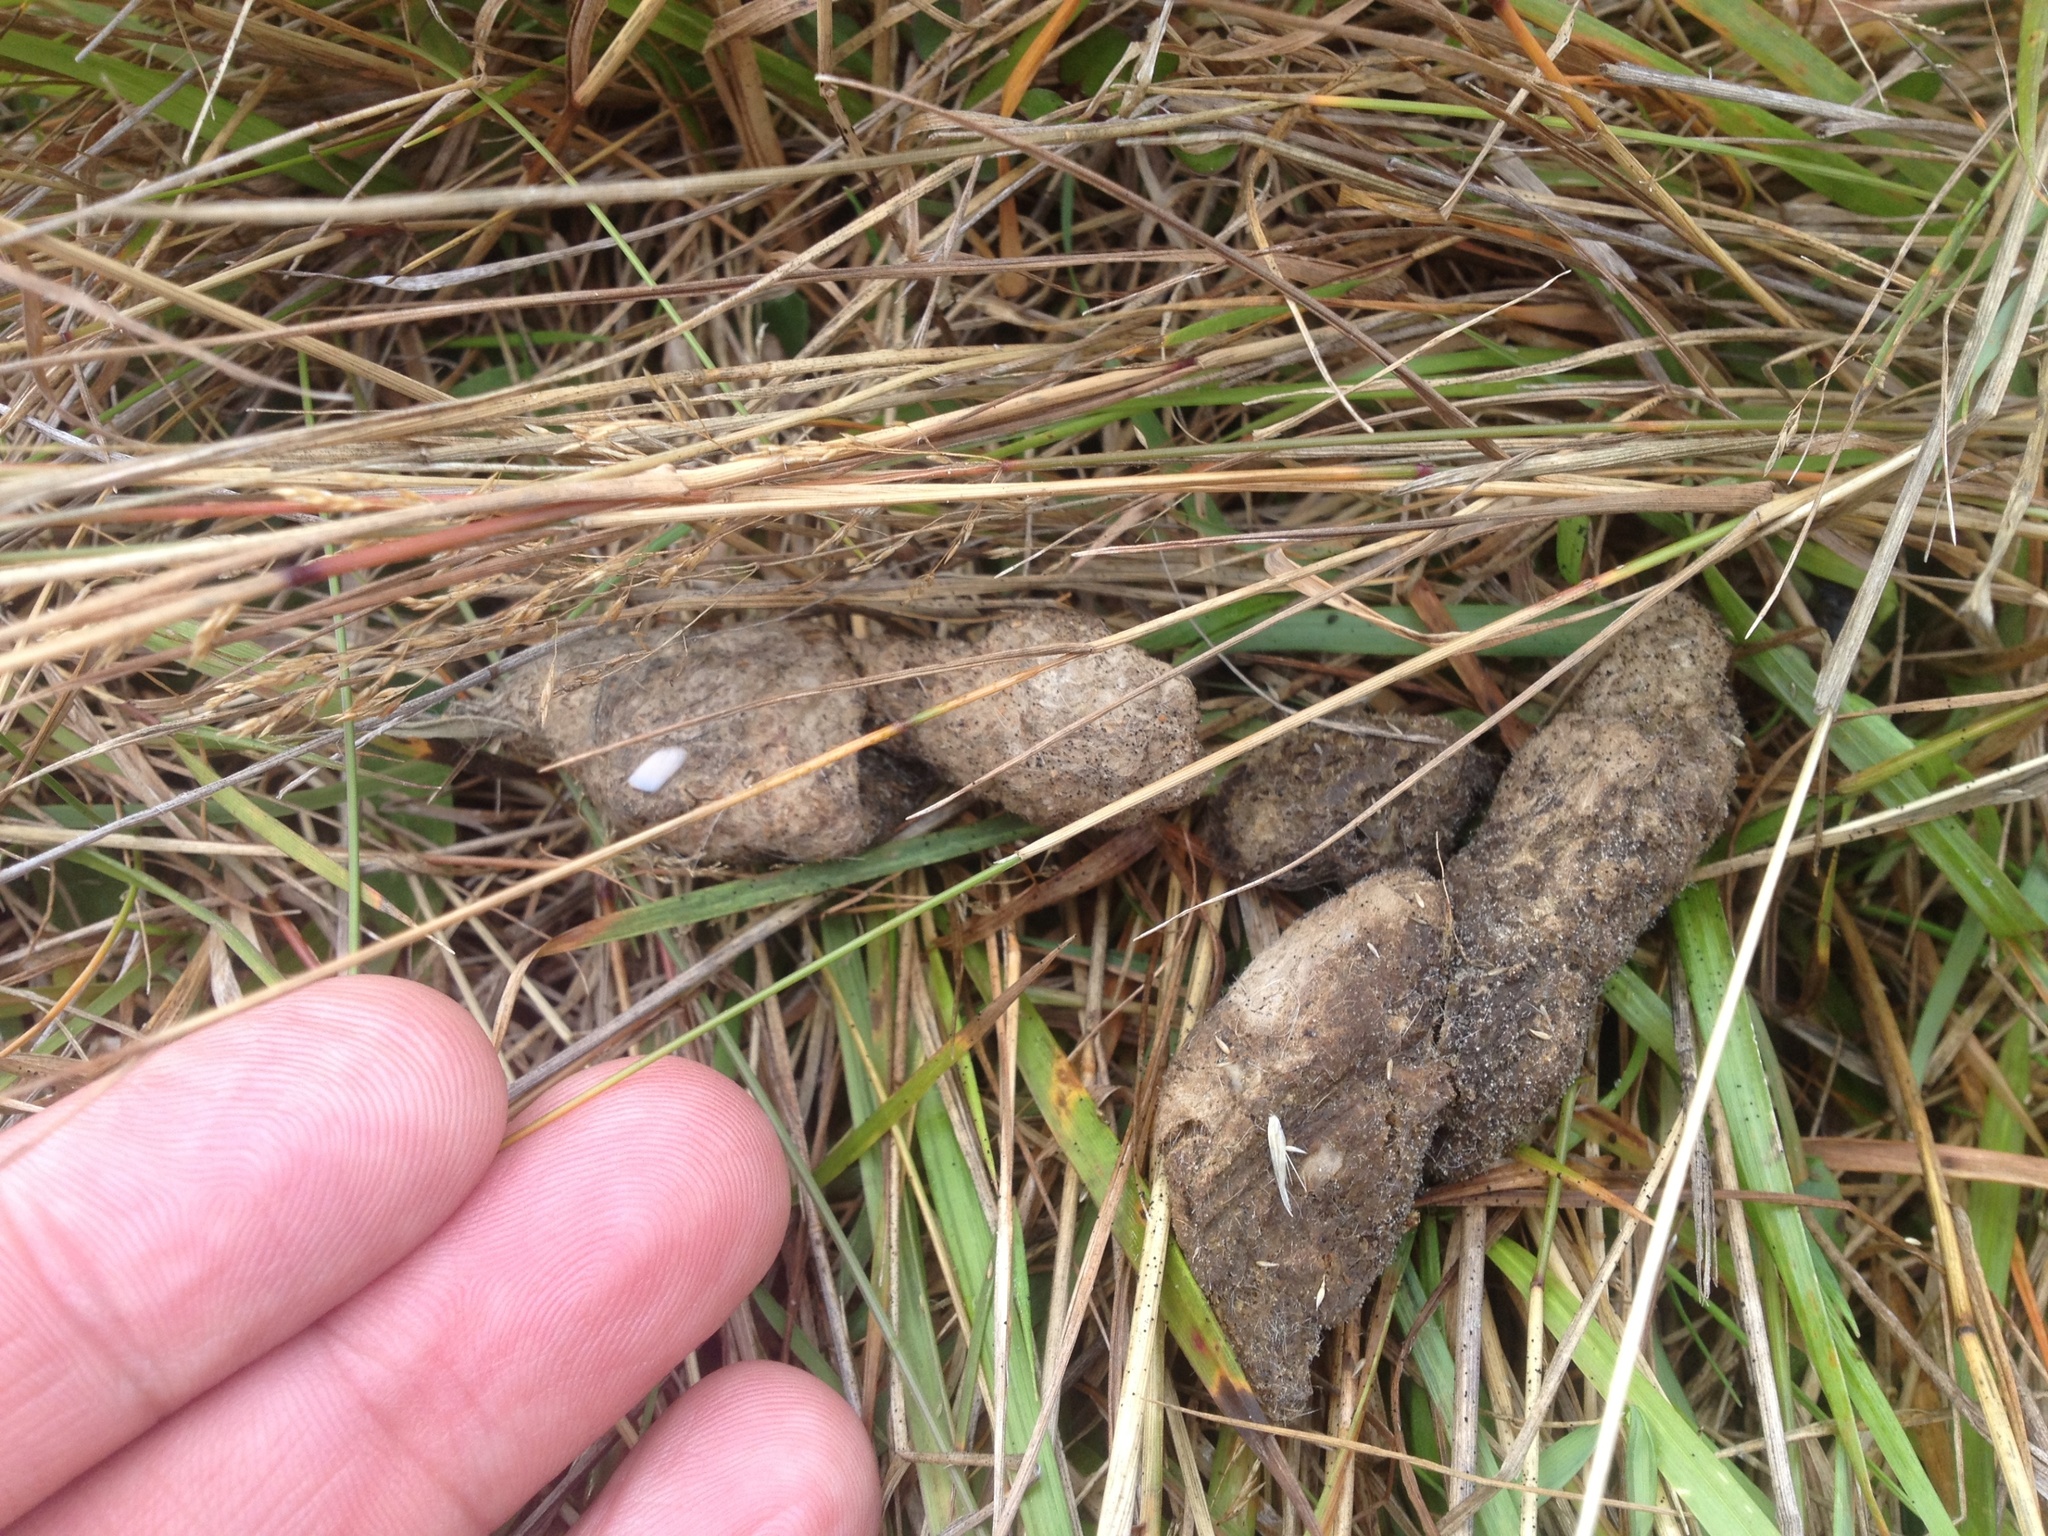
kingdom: Animalia
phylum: Chordata
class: Mammalia
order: Carnivora
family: Felidae
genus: Felis
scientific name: Felis catus
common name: Domestic cat
